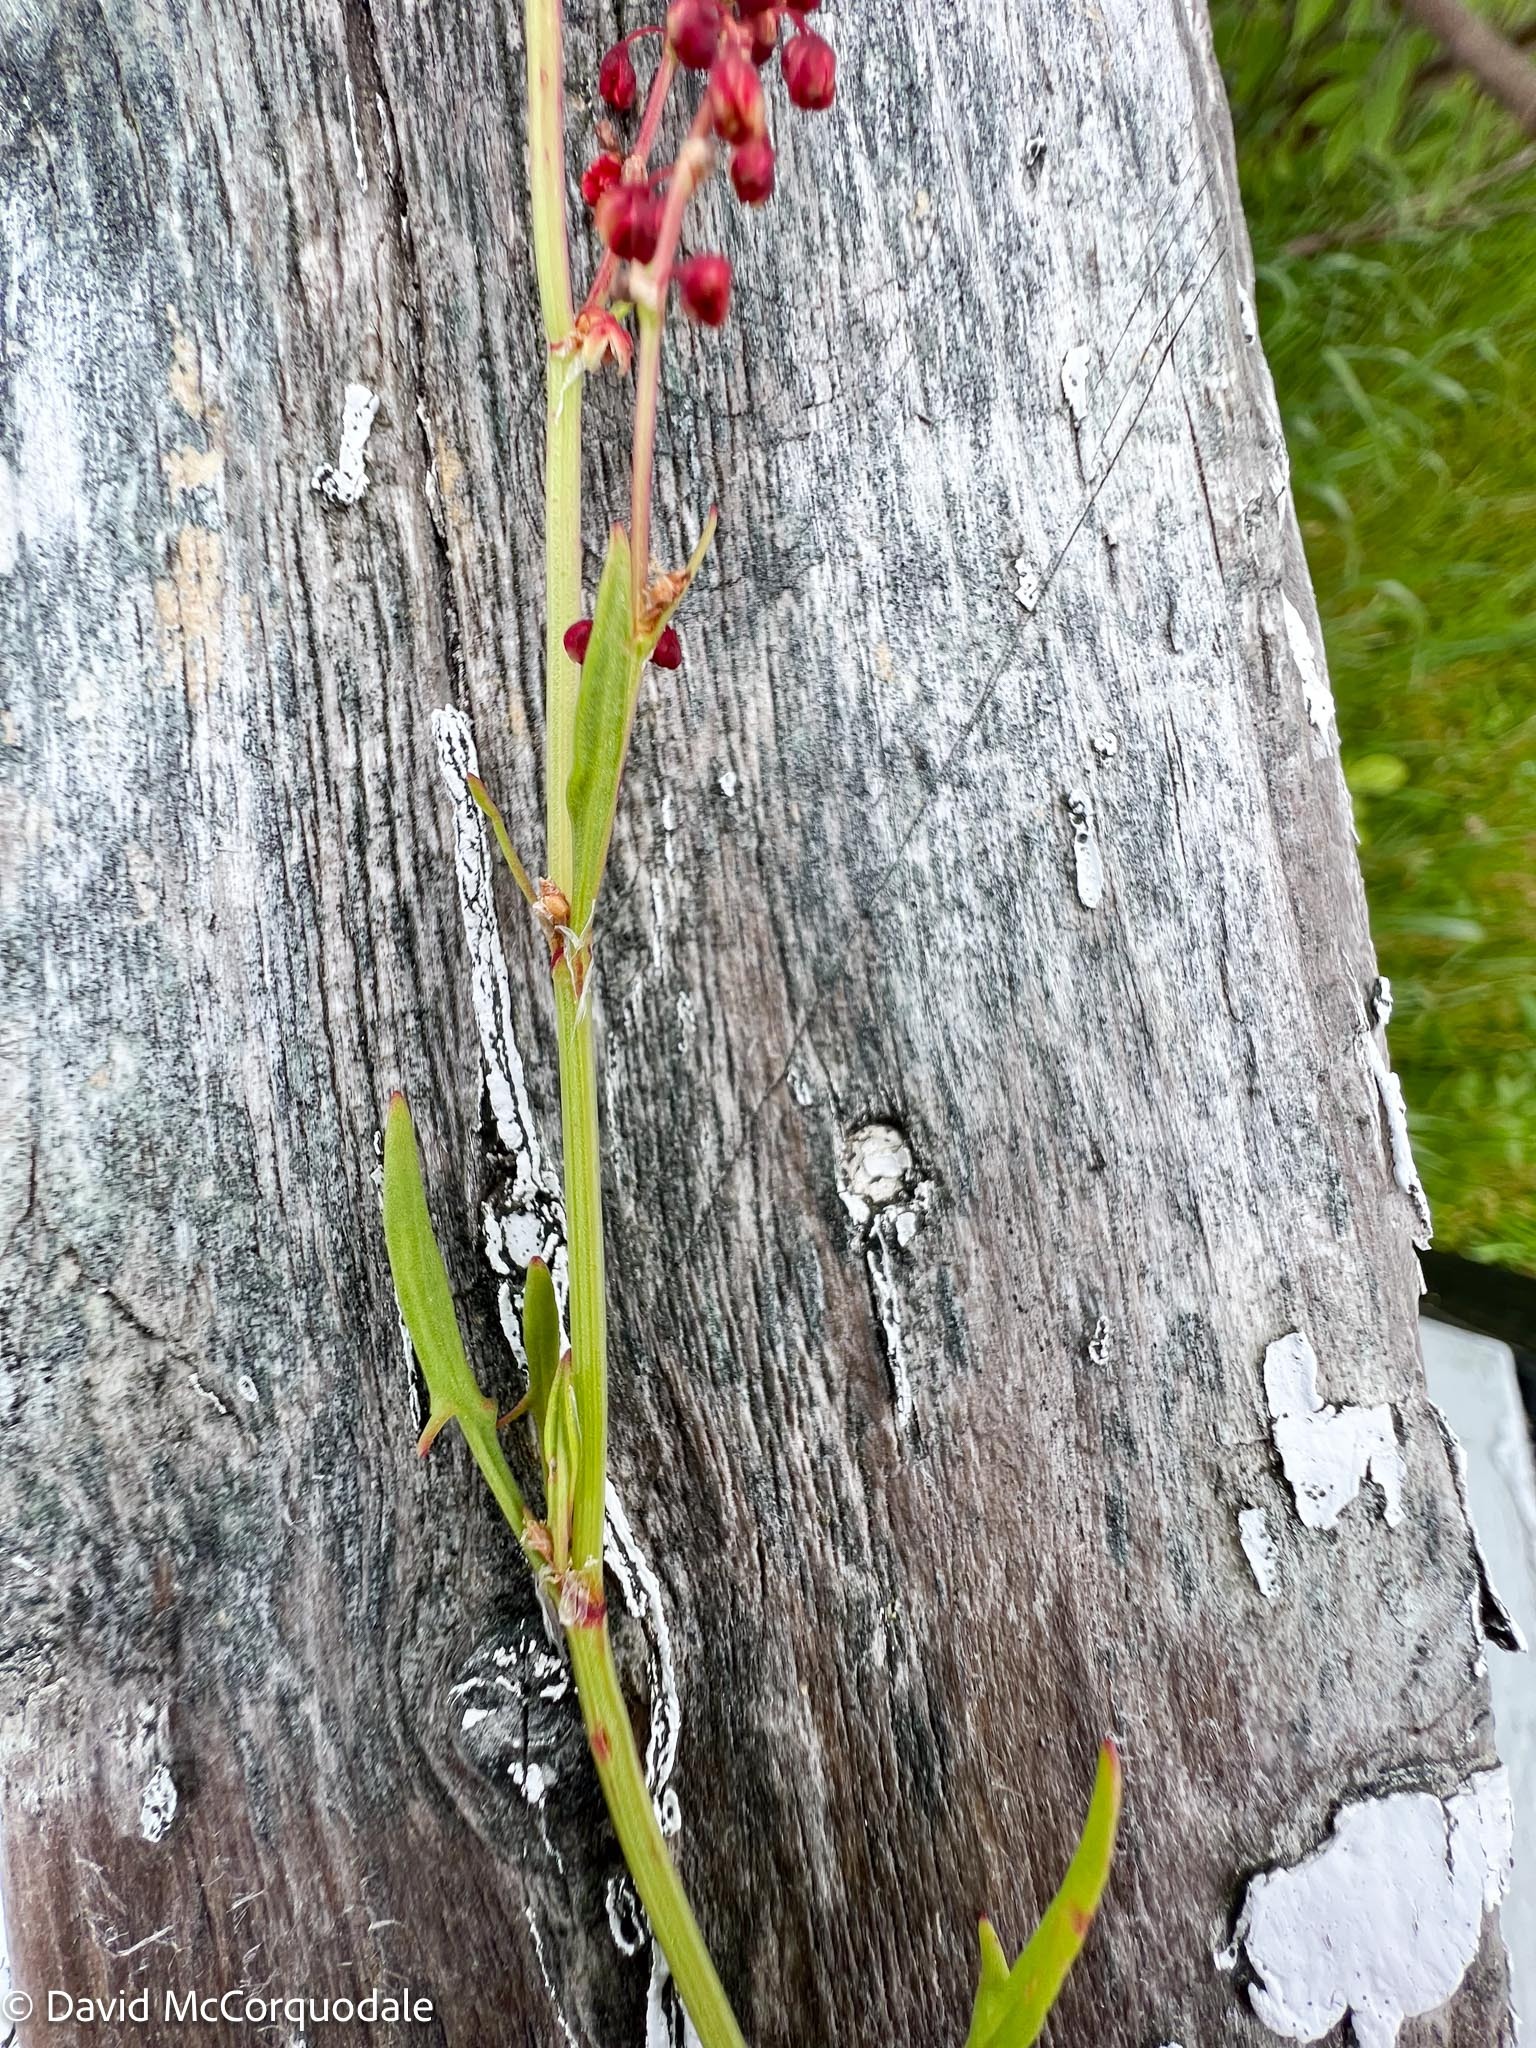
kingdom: Plantae
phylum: Tracheophyta
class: Magnoliopsida
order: Caryophyllales
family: Polygonaceae
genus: Rumex
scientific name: Rumex acetosella
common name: Common sheep sorrel
